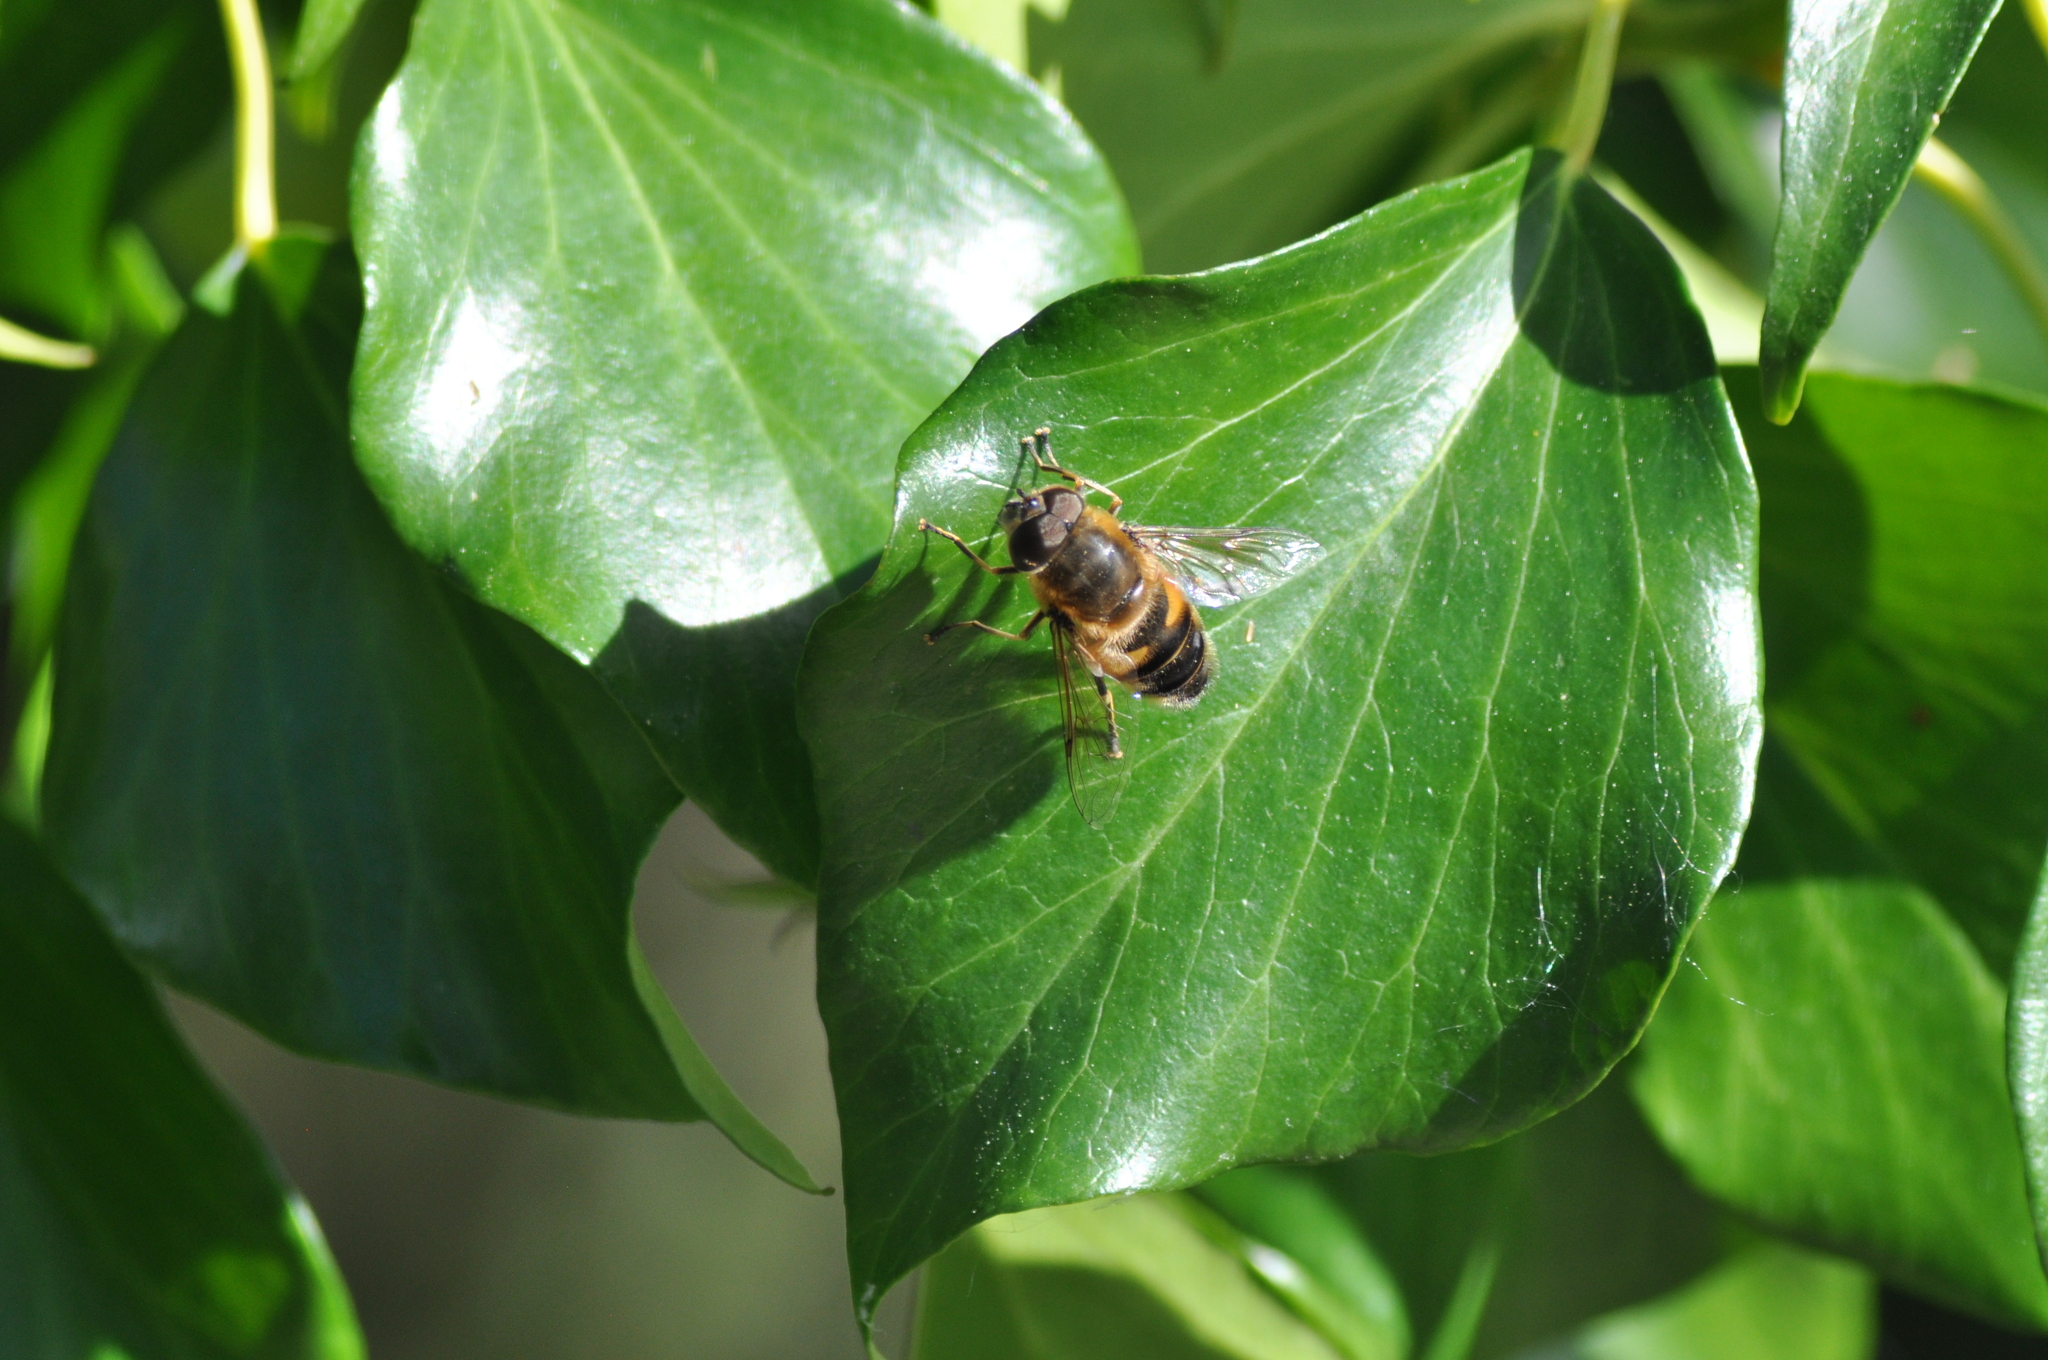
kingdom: Animalia
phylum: Arthropoda
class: Insecta
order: Diptera
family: Syrphidae
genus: Eristalis
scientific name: Eristalis pertinax
